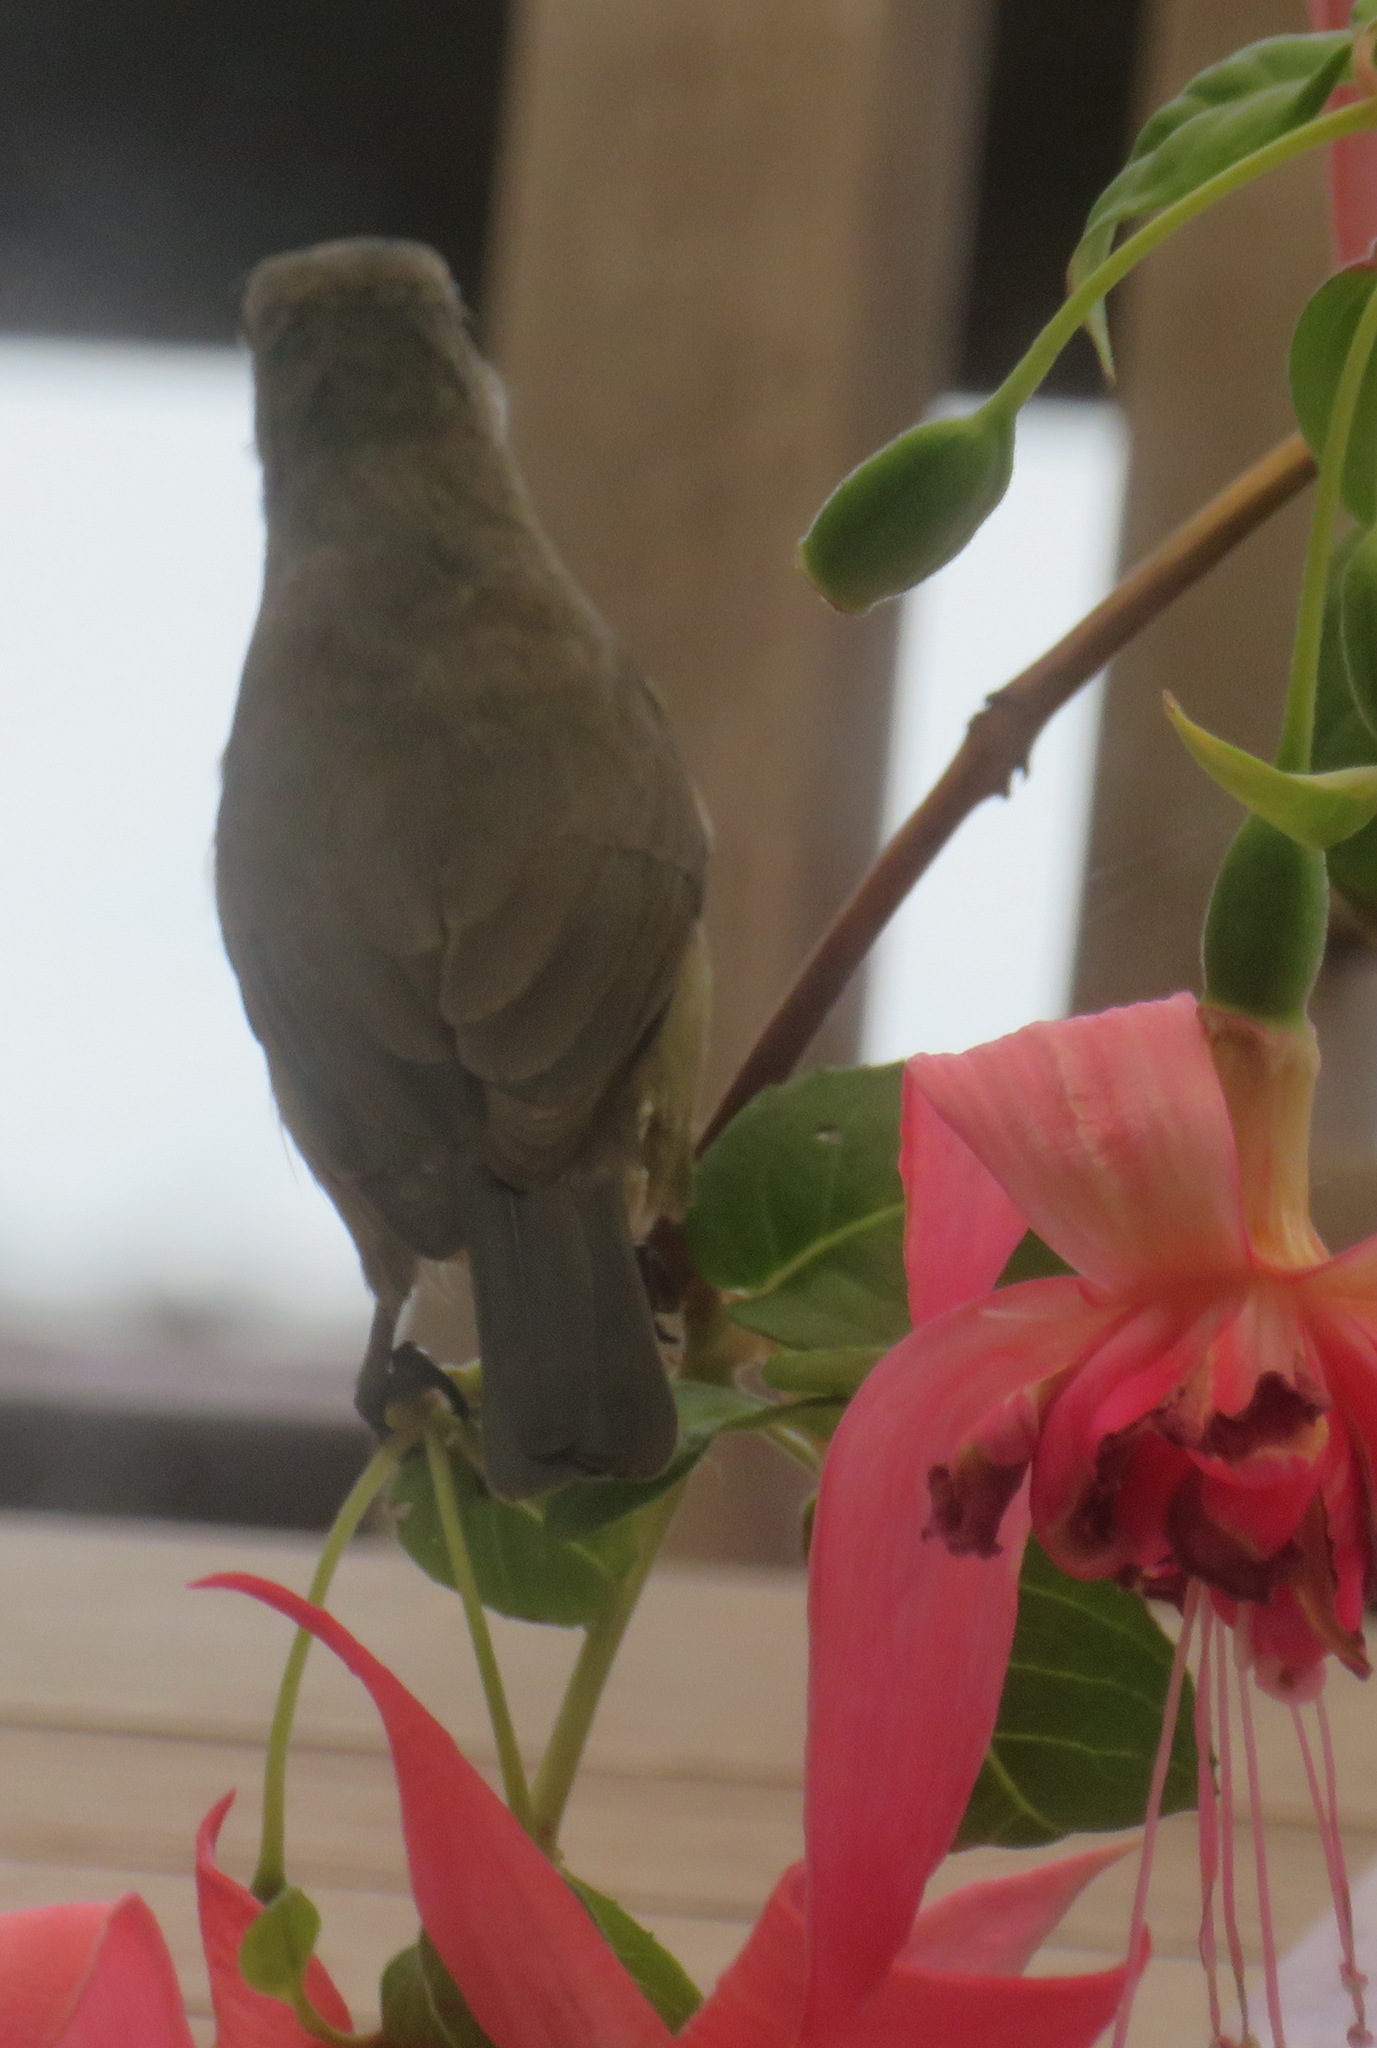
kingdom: Animalia
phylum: Chordata
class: Aves
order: Passeriformes
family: Nectariniidae
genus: Cinnyris
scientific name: Cinnyris afer
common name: Greater double-collared sunbird
